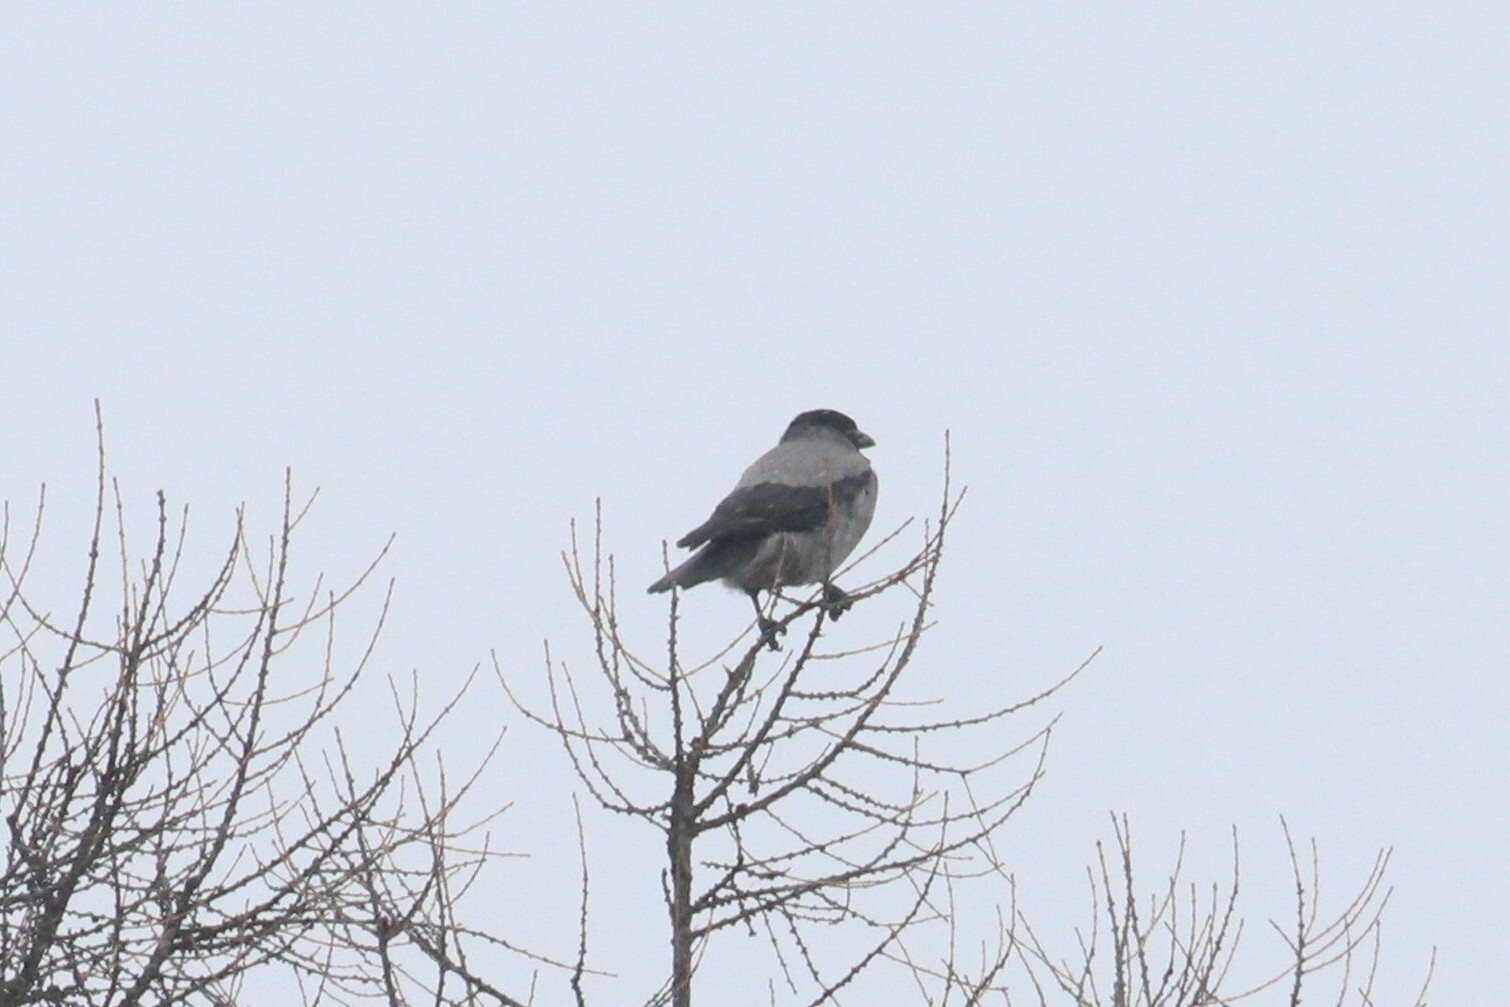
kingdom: Animalia
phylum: Chordata
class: Aves
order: Passeriformes
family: Corvidae
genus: Corvus
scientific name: Corvus cornix
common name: Hooded crow
